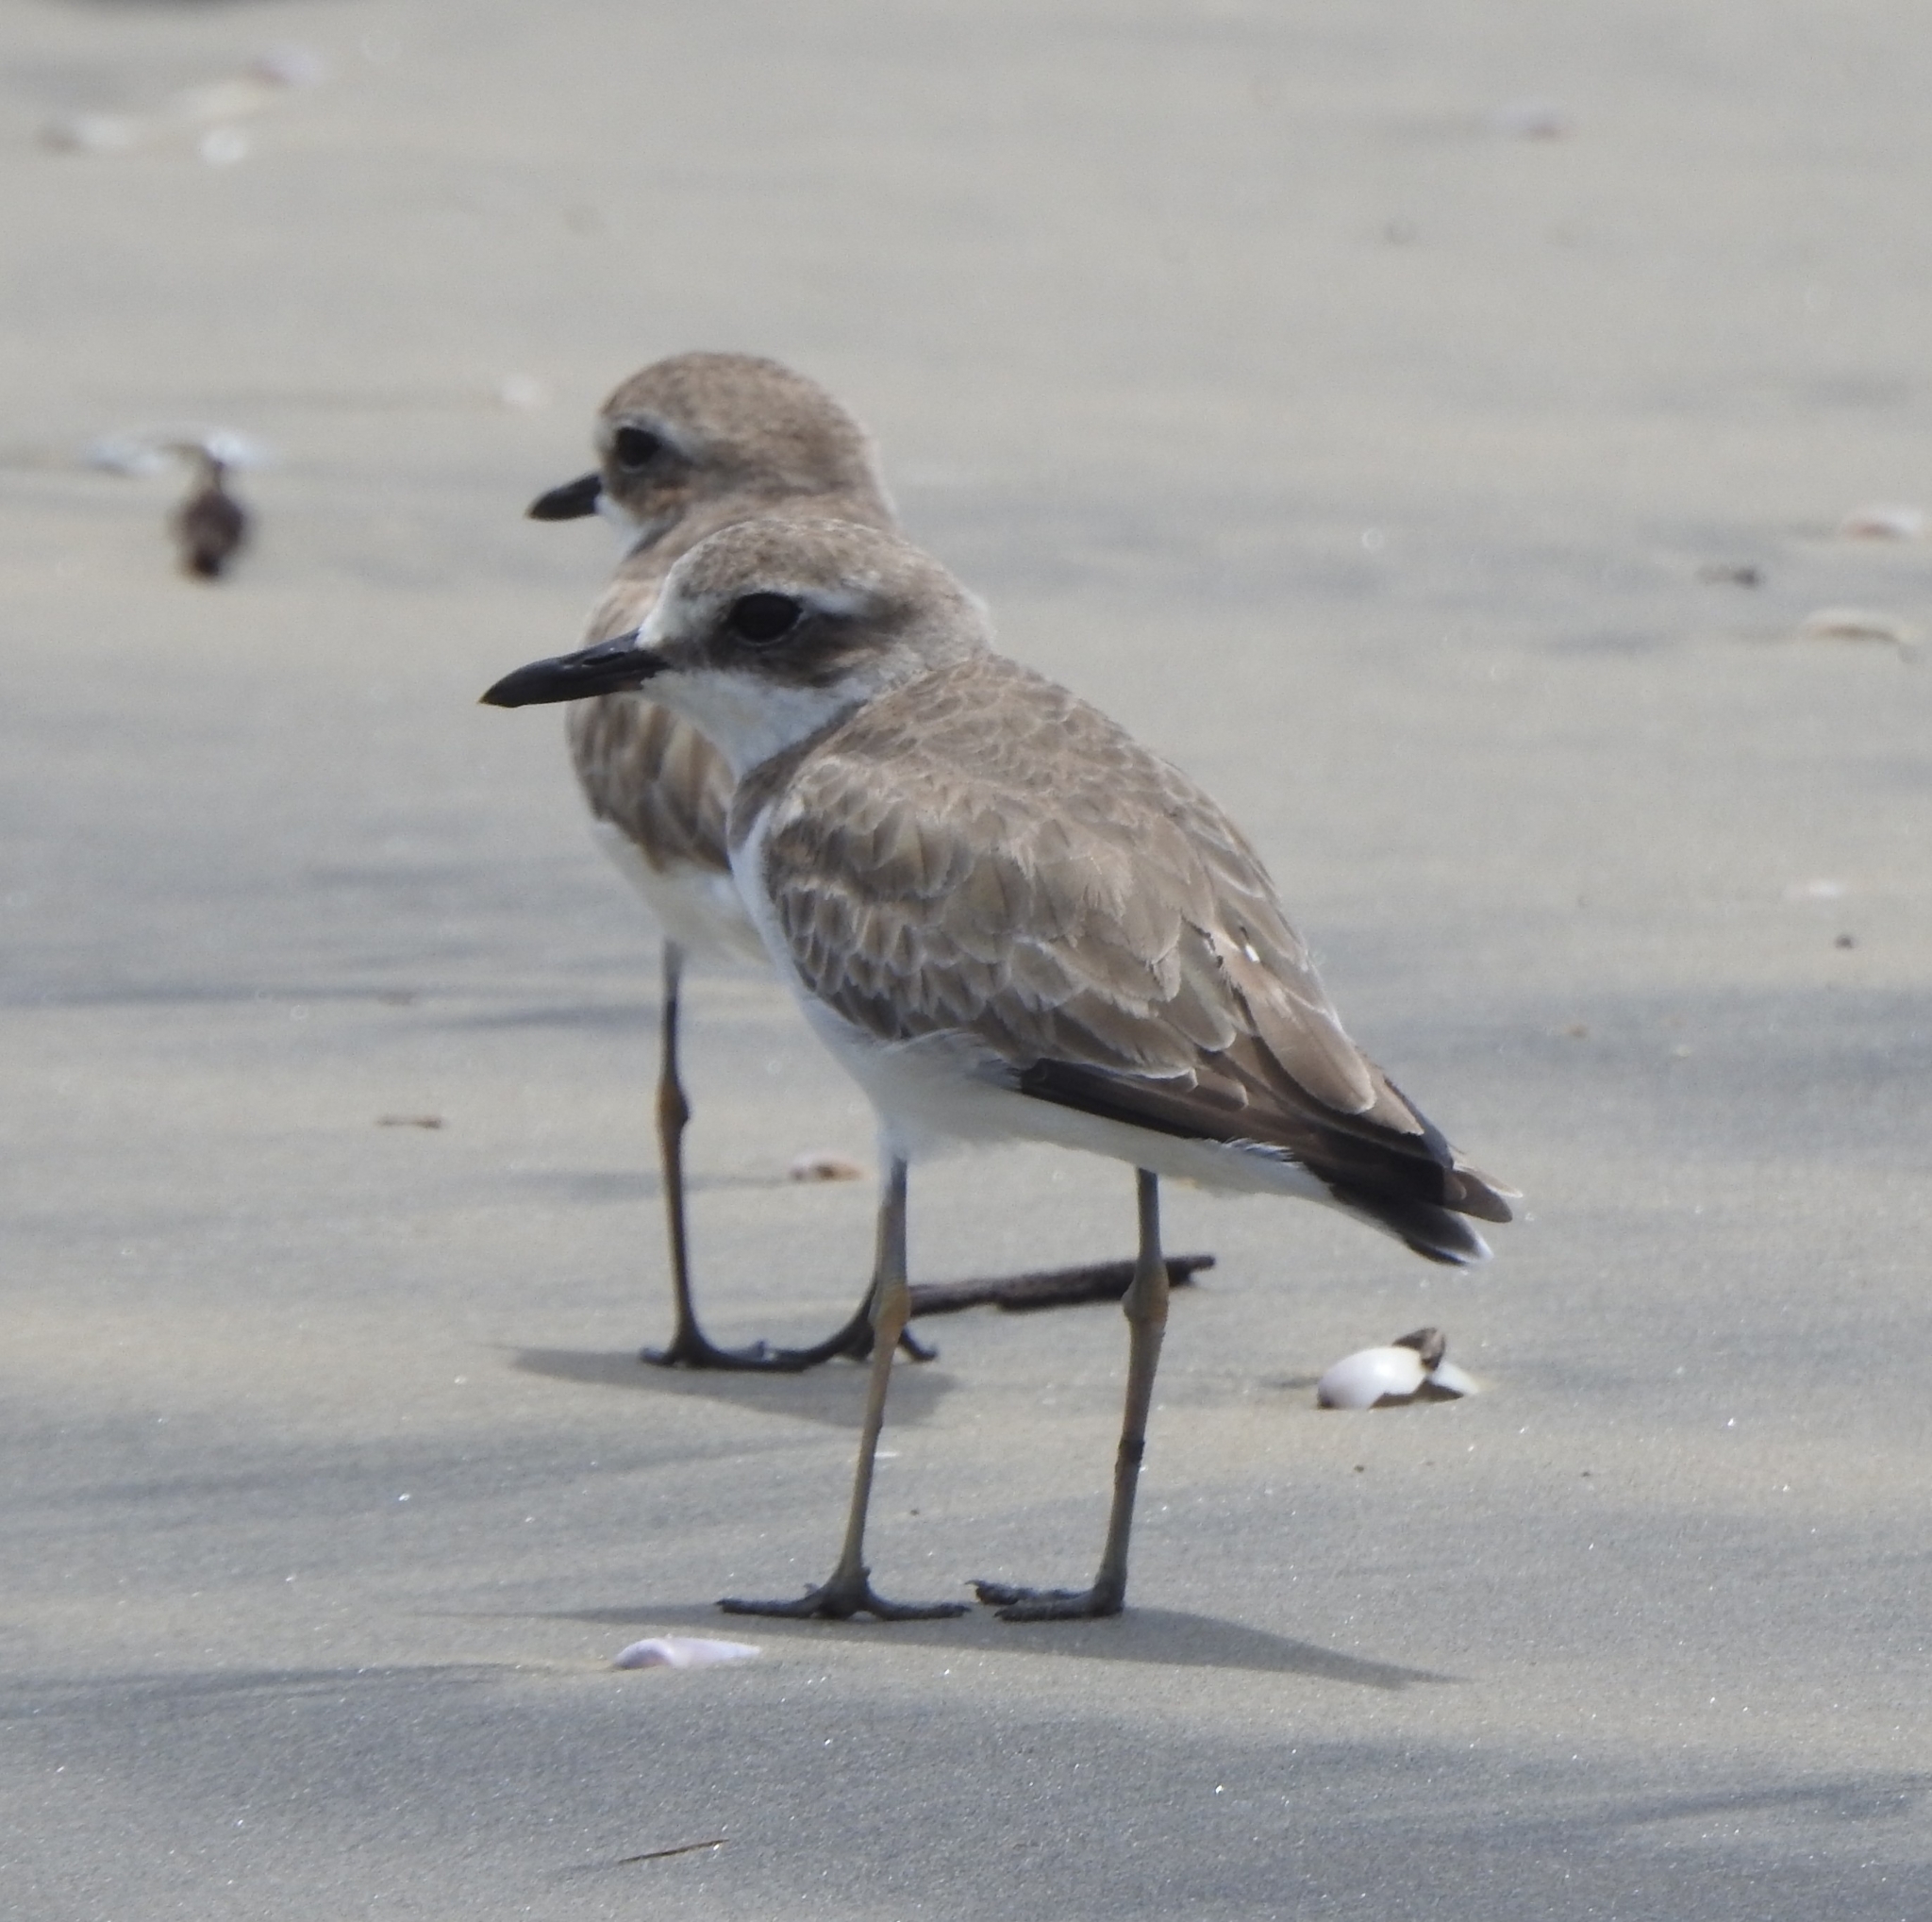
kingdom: Animalia
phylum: Chordata
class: Aves
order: Charadriiformes
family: Charadriidae
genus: Charadrius
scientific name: Charadrius leschenaultii
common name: Greater sand plover
